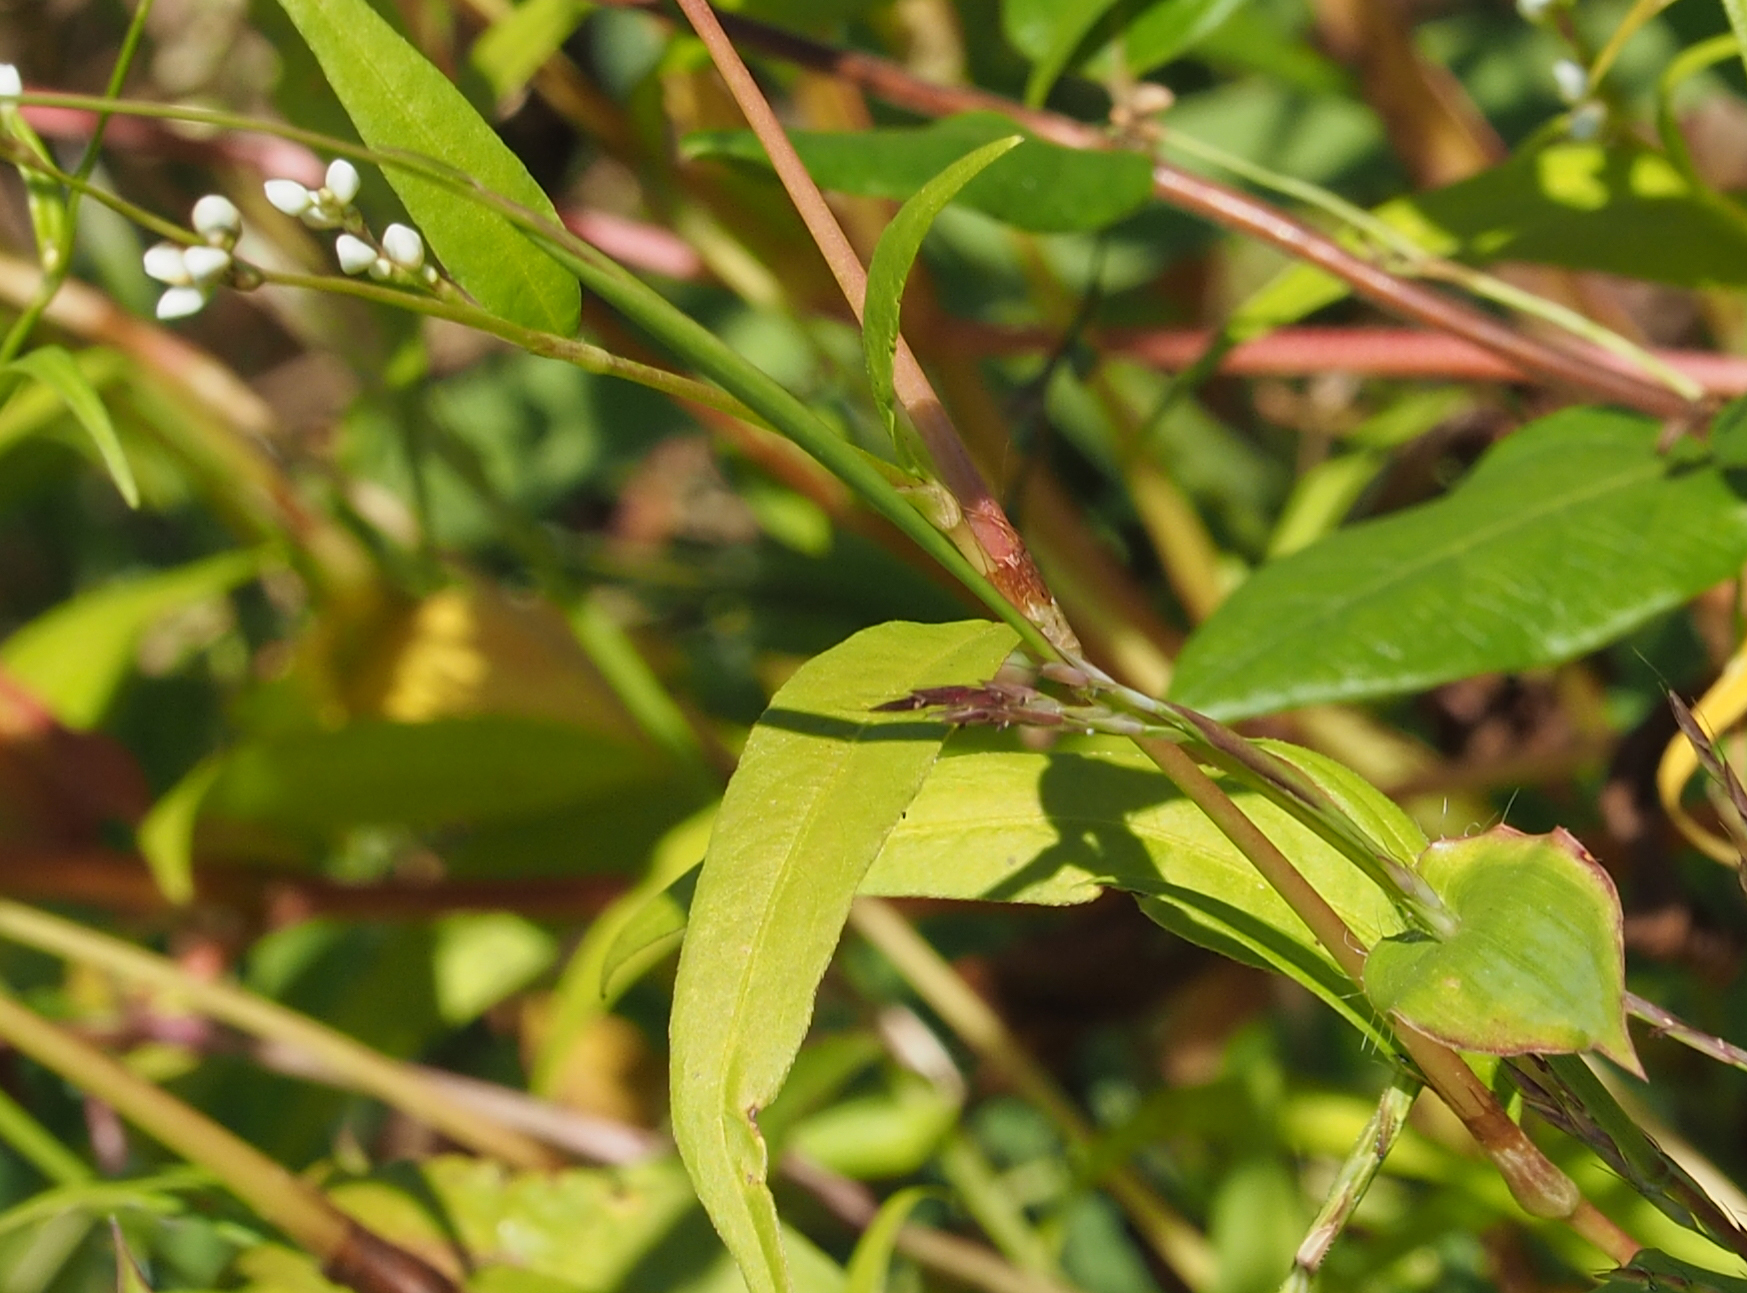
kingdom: Plantae
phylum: Tracheophyta
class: Magnoliopsida
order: Caryophyllales
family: Polygonaceae
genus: Persicaria
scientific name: Persicaria punctata
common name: Dotted smartweed
